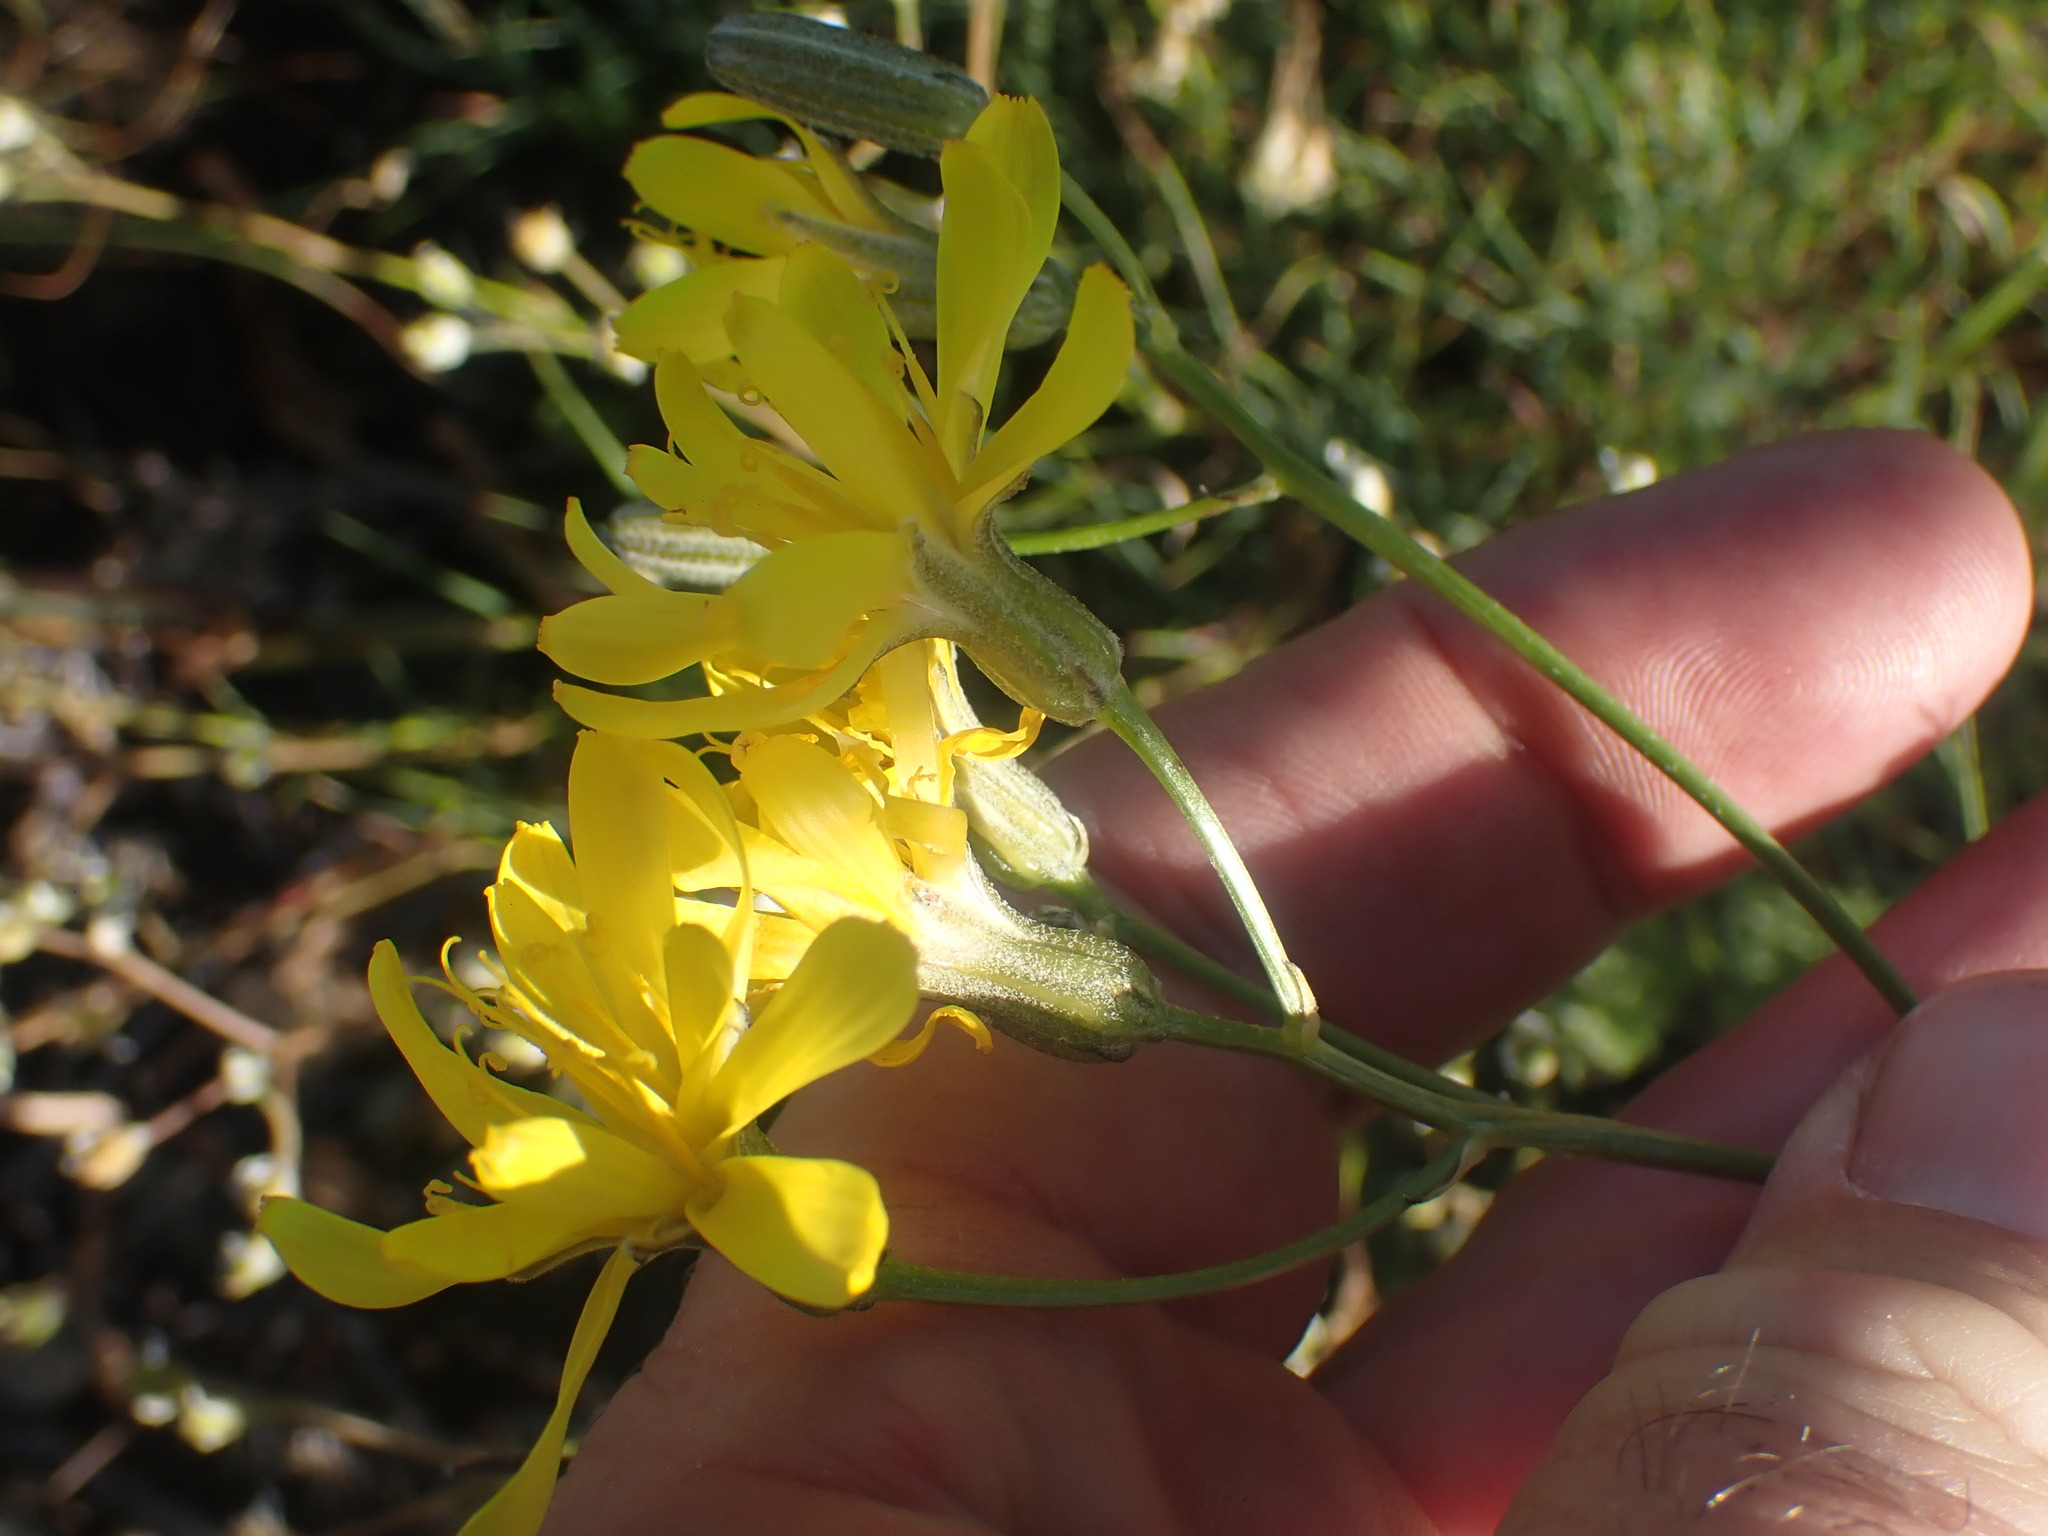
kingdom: Plantae
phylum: Tracheophyta
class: Magnoliopsida
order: Asterales
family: Asteraceae
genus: Crepis
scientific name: Crepis atribarba
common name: Dark hawk's-beard
